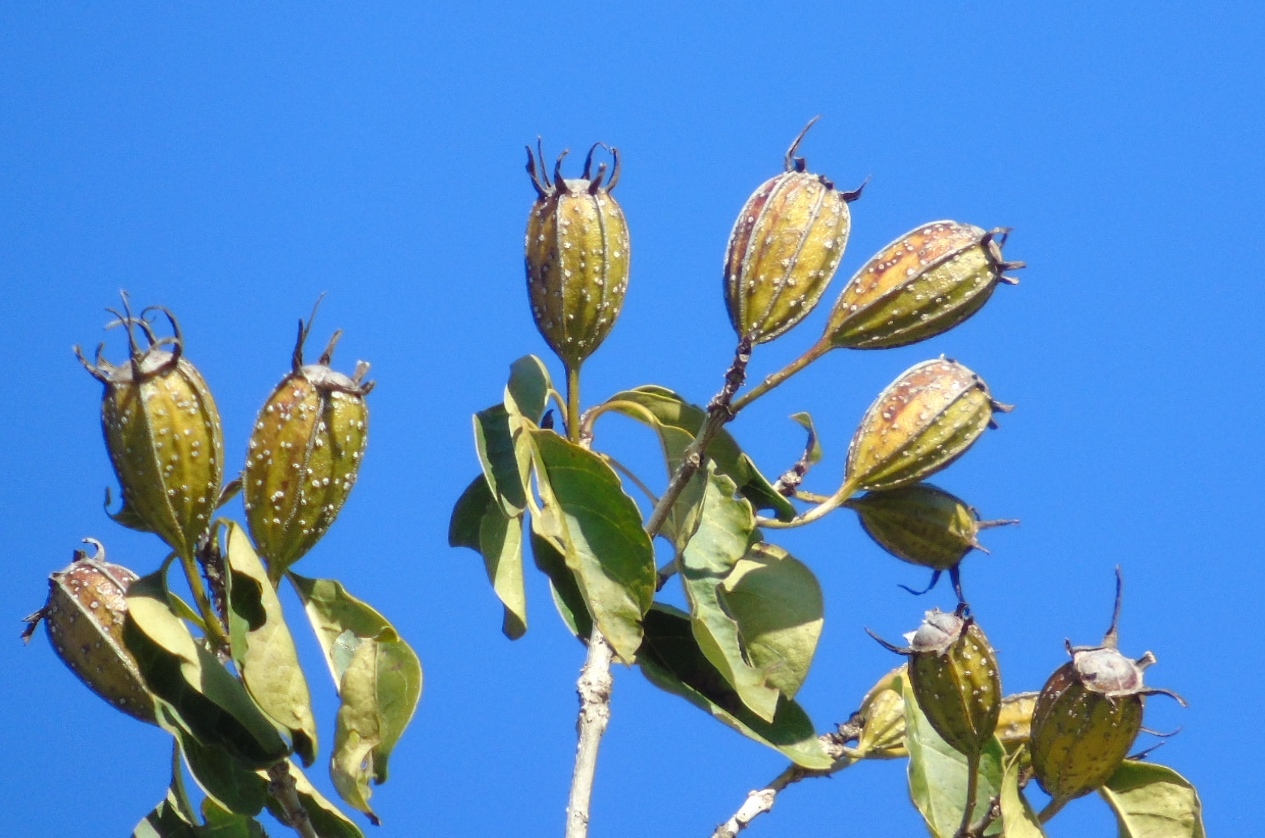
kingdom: Plantae
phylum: Tracheophyta
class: Magnoliopsida
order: Gentianales
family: Rubiaceae
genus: Hintonia
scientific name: Hintonia latiflora
